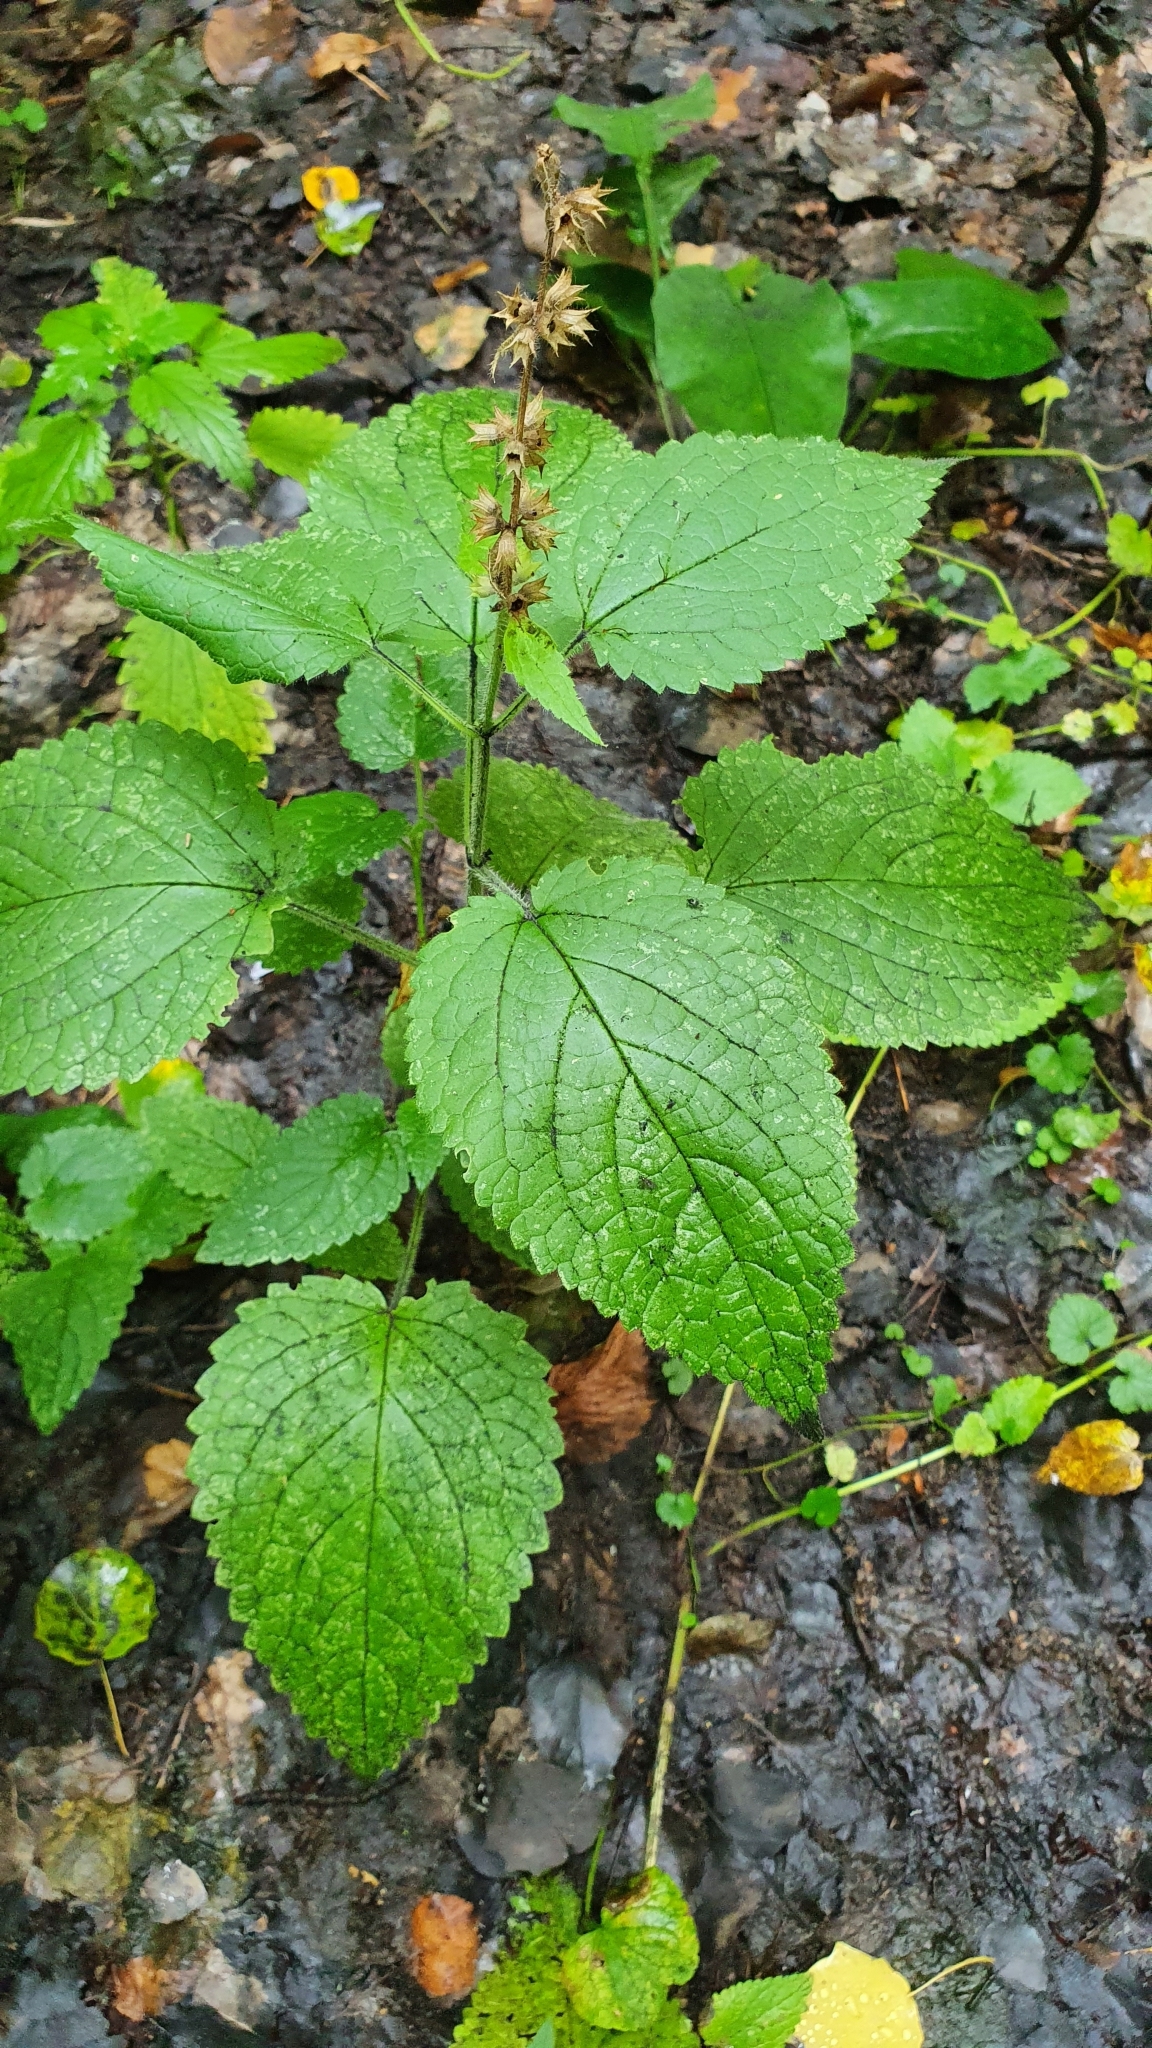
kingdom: Plantae
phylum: Tracheophyta
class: Magnoliopsida
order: Lamiales
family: Lamiaceae
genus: Stachys
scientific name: Stachys sylvatica
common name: Hedge woundwort
